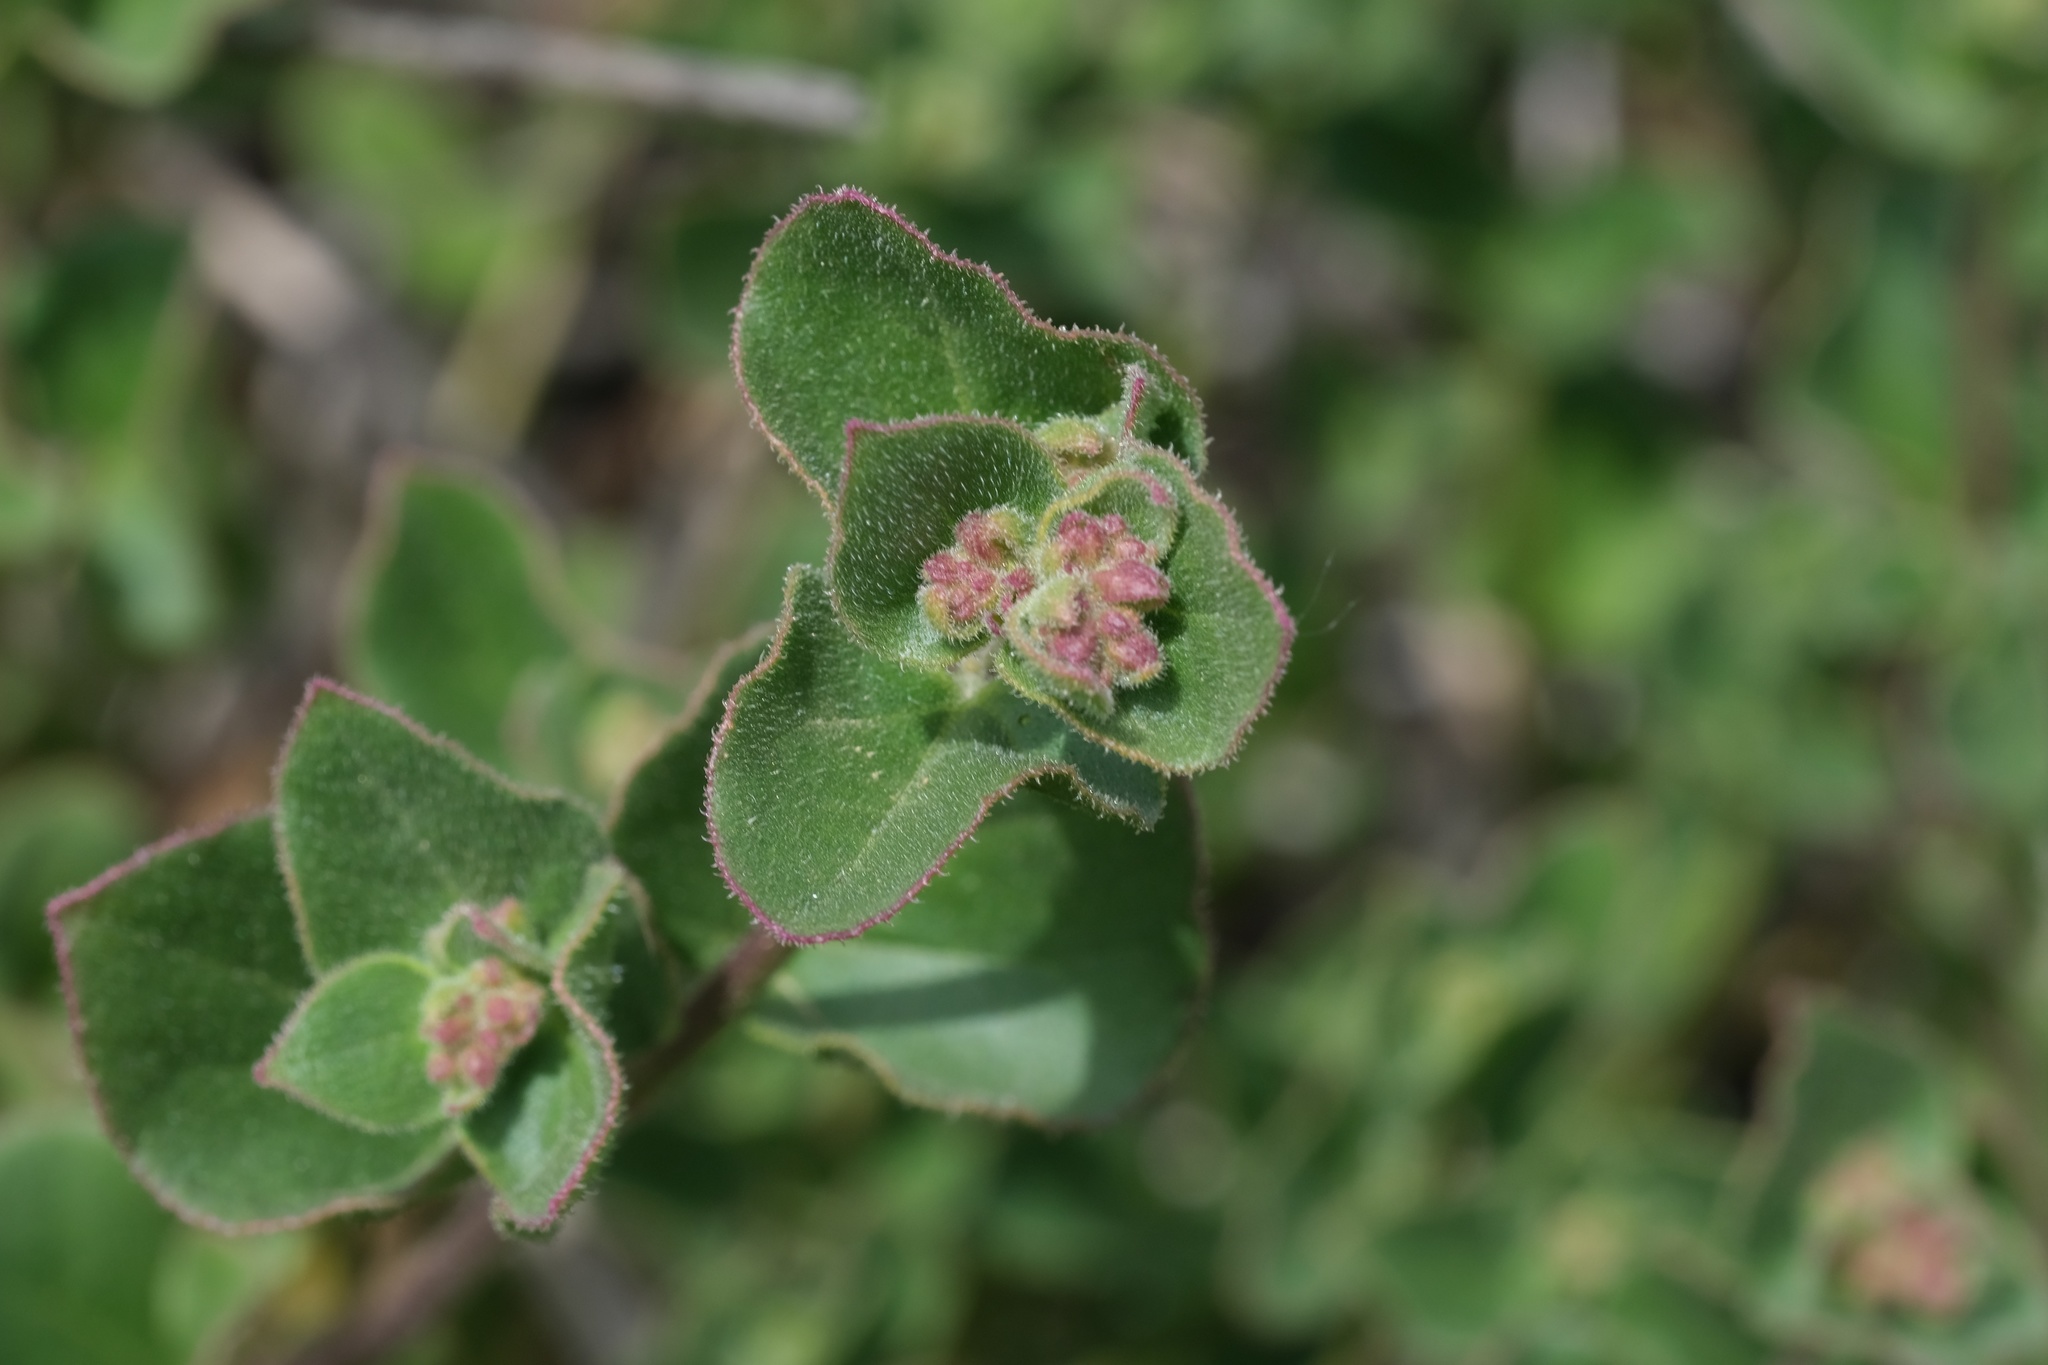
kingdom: Plantae
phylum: Tracheophyta
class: Magnoliopsida
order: Caryophyllales
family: Nyctaginaceae
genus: Mirabilis
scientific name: Mirabilis laevis
